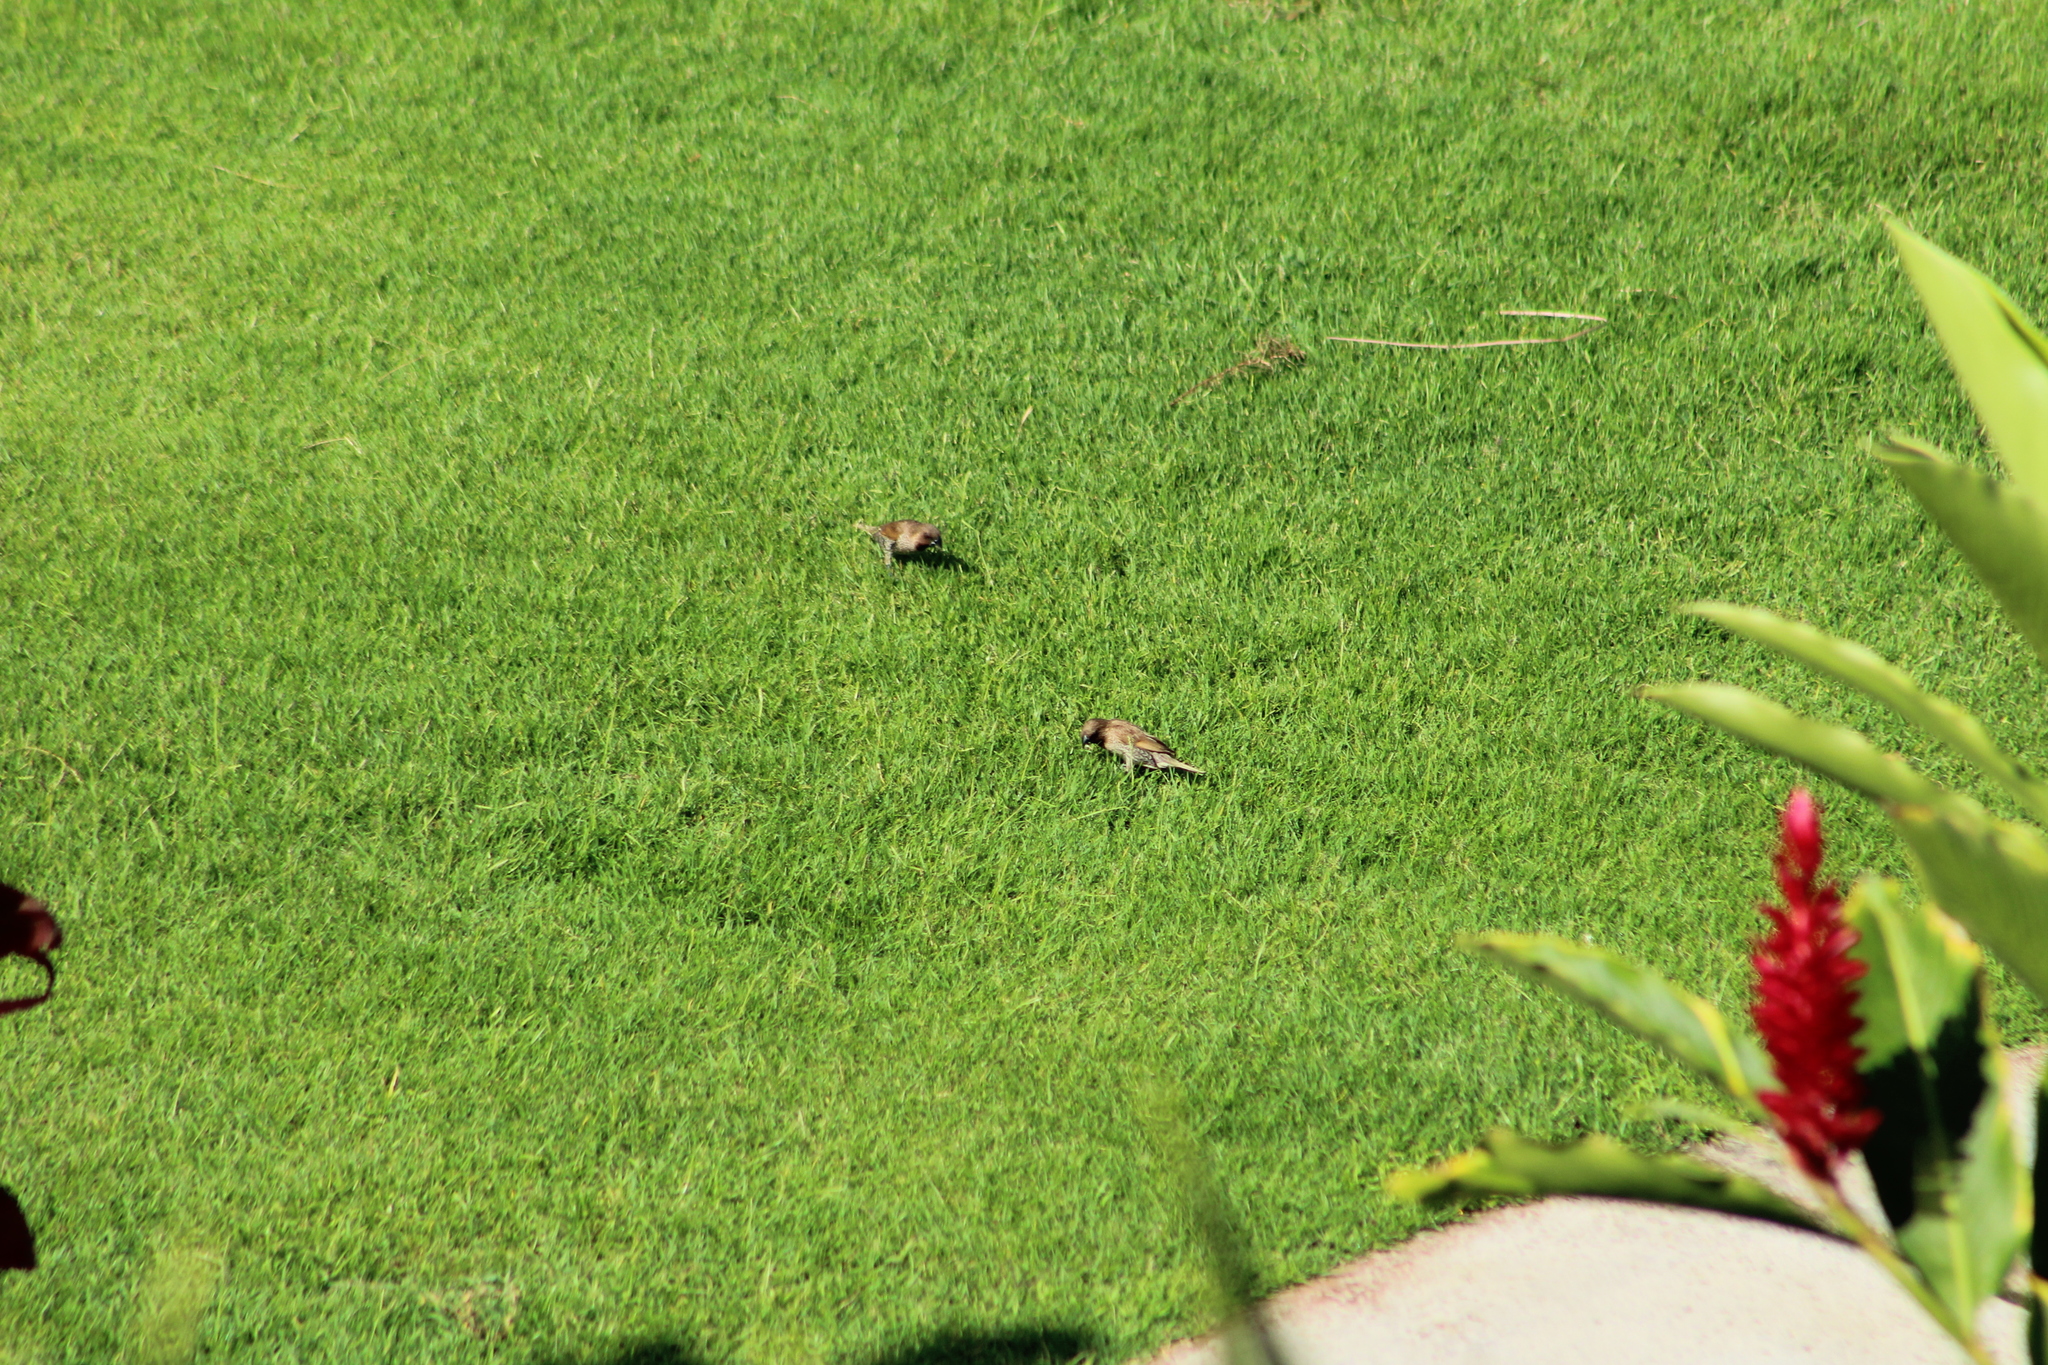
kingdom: Animalia
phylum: Chordata
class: Aves
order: Passeriformes
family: Estrildidae
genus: Lonchura
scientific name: Lonchura punctulata
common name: Scaly-breasted munia
